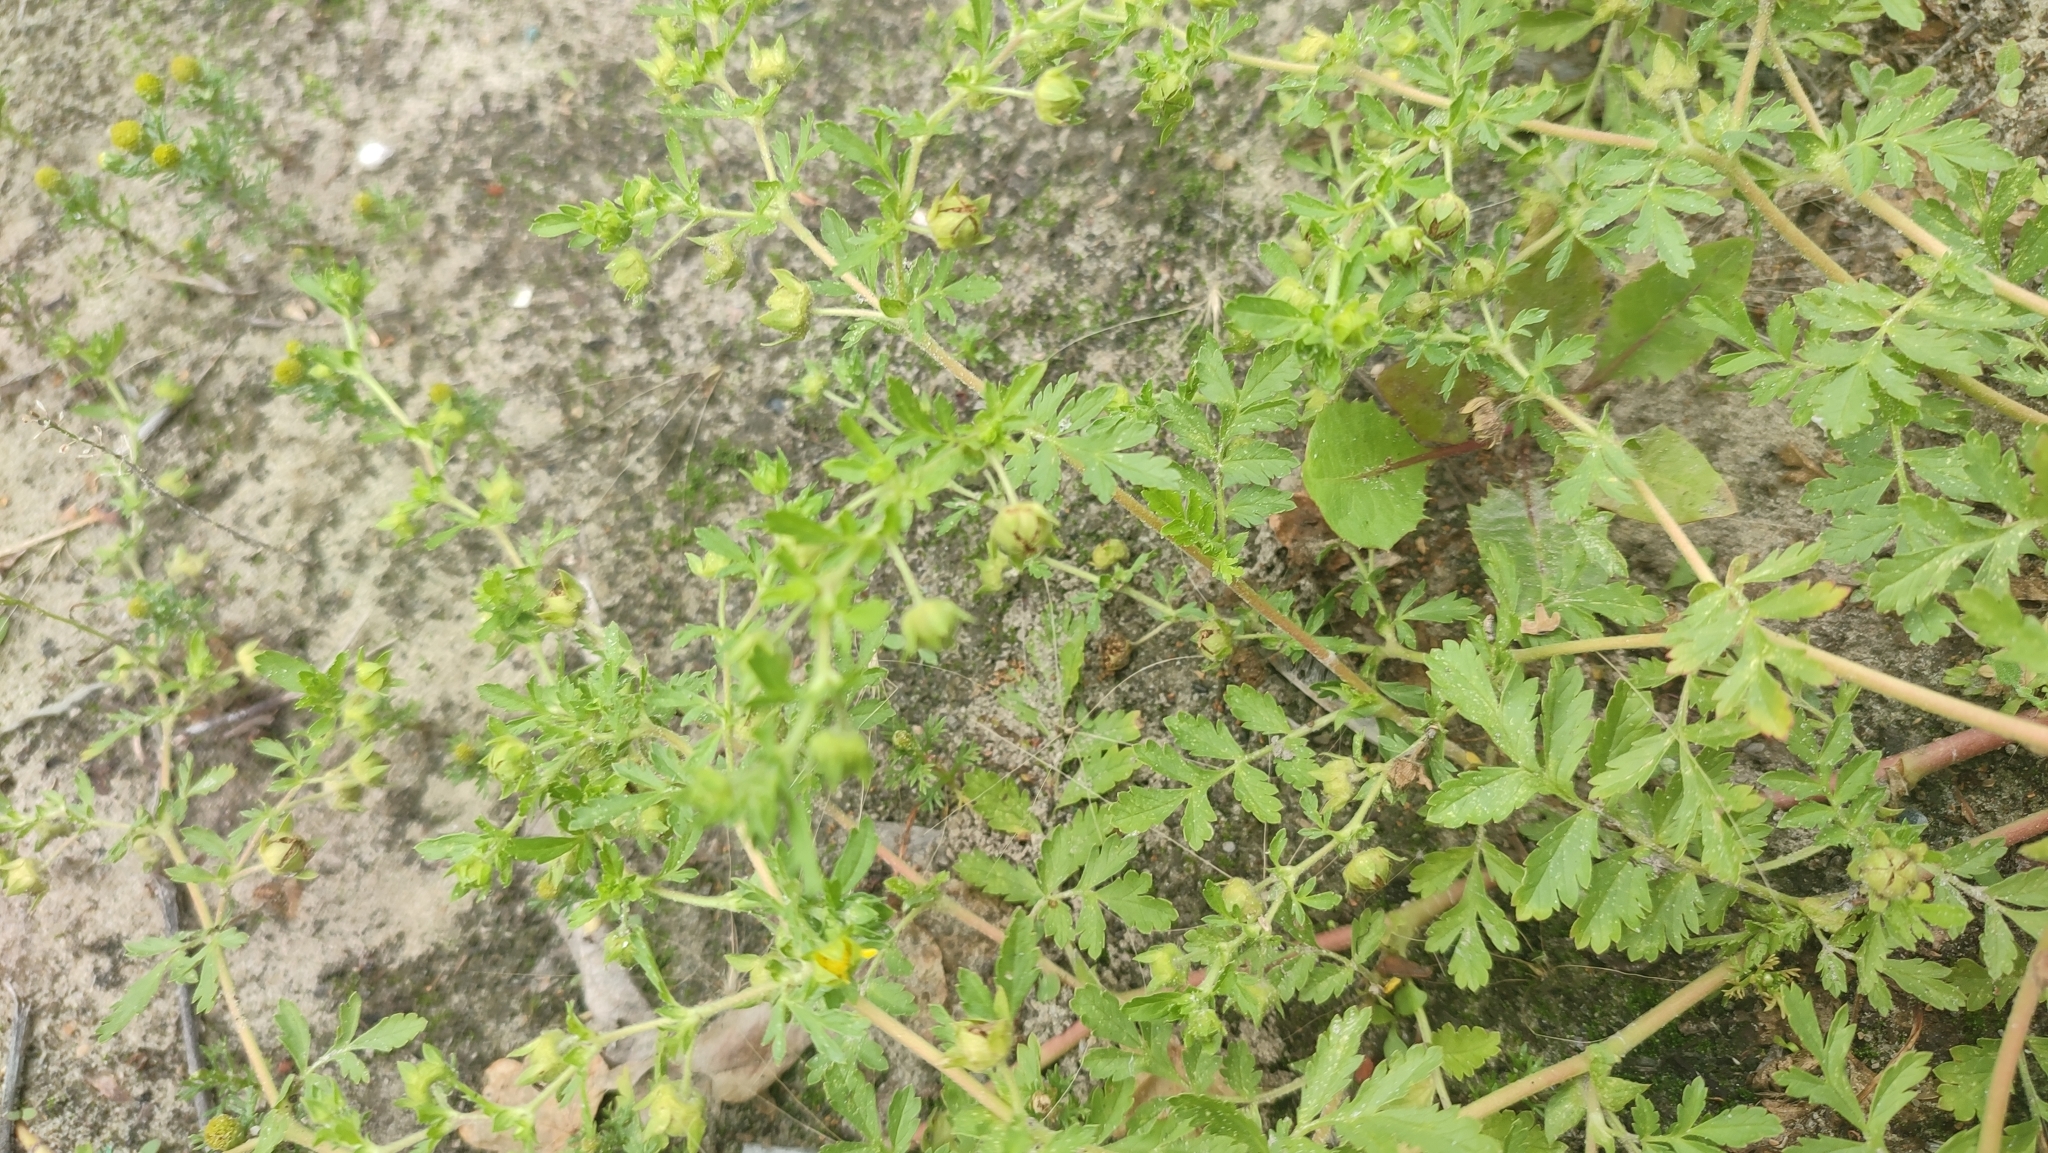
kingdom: Plantae
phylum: Tracheophyta
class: Magnoliopsida
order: Rosales
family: Rosaceae
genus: Potentilla
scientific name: Potentilla supina
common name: Prostrate cinquefoil
